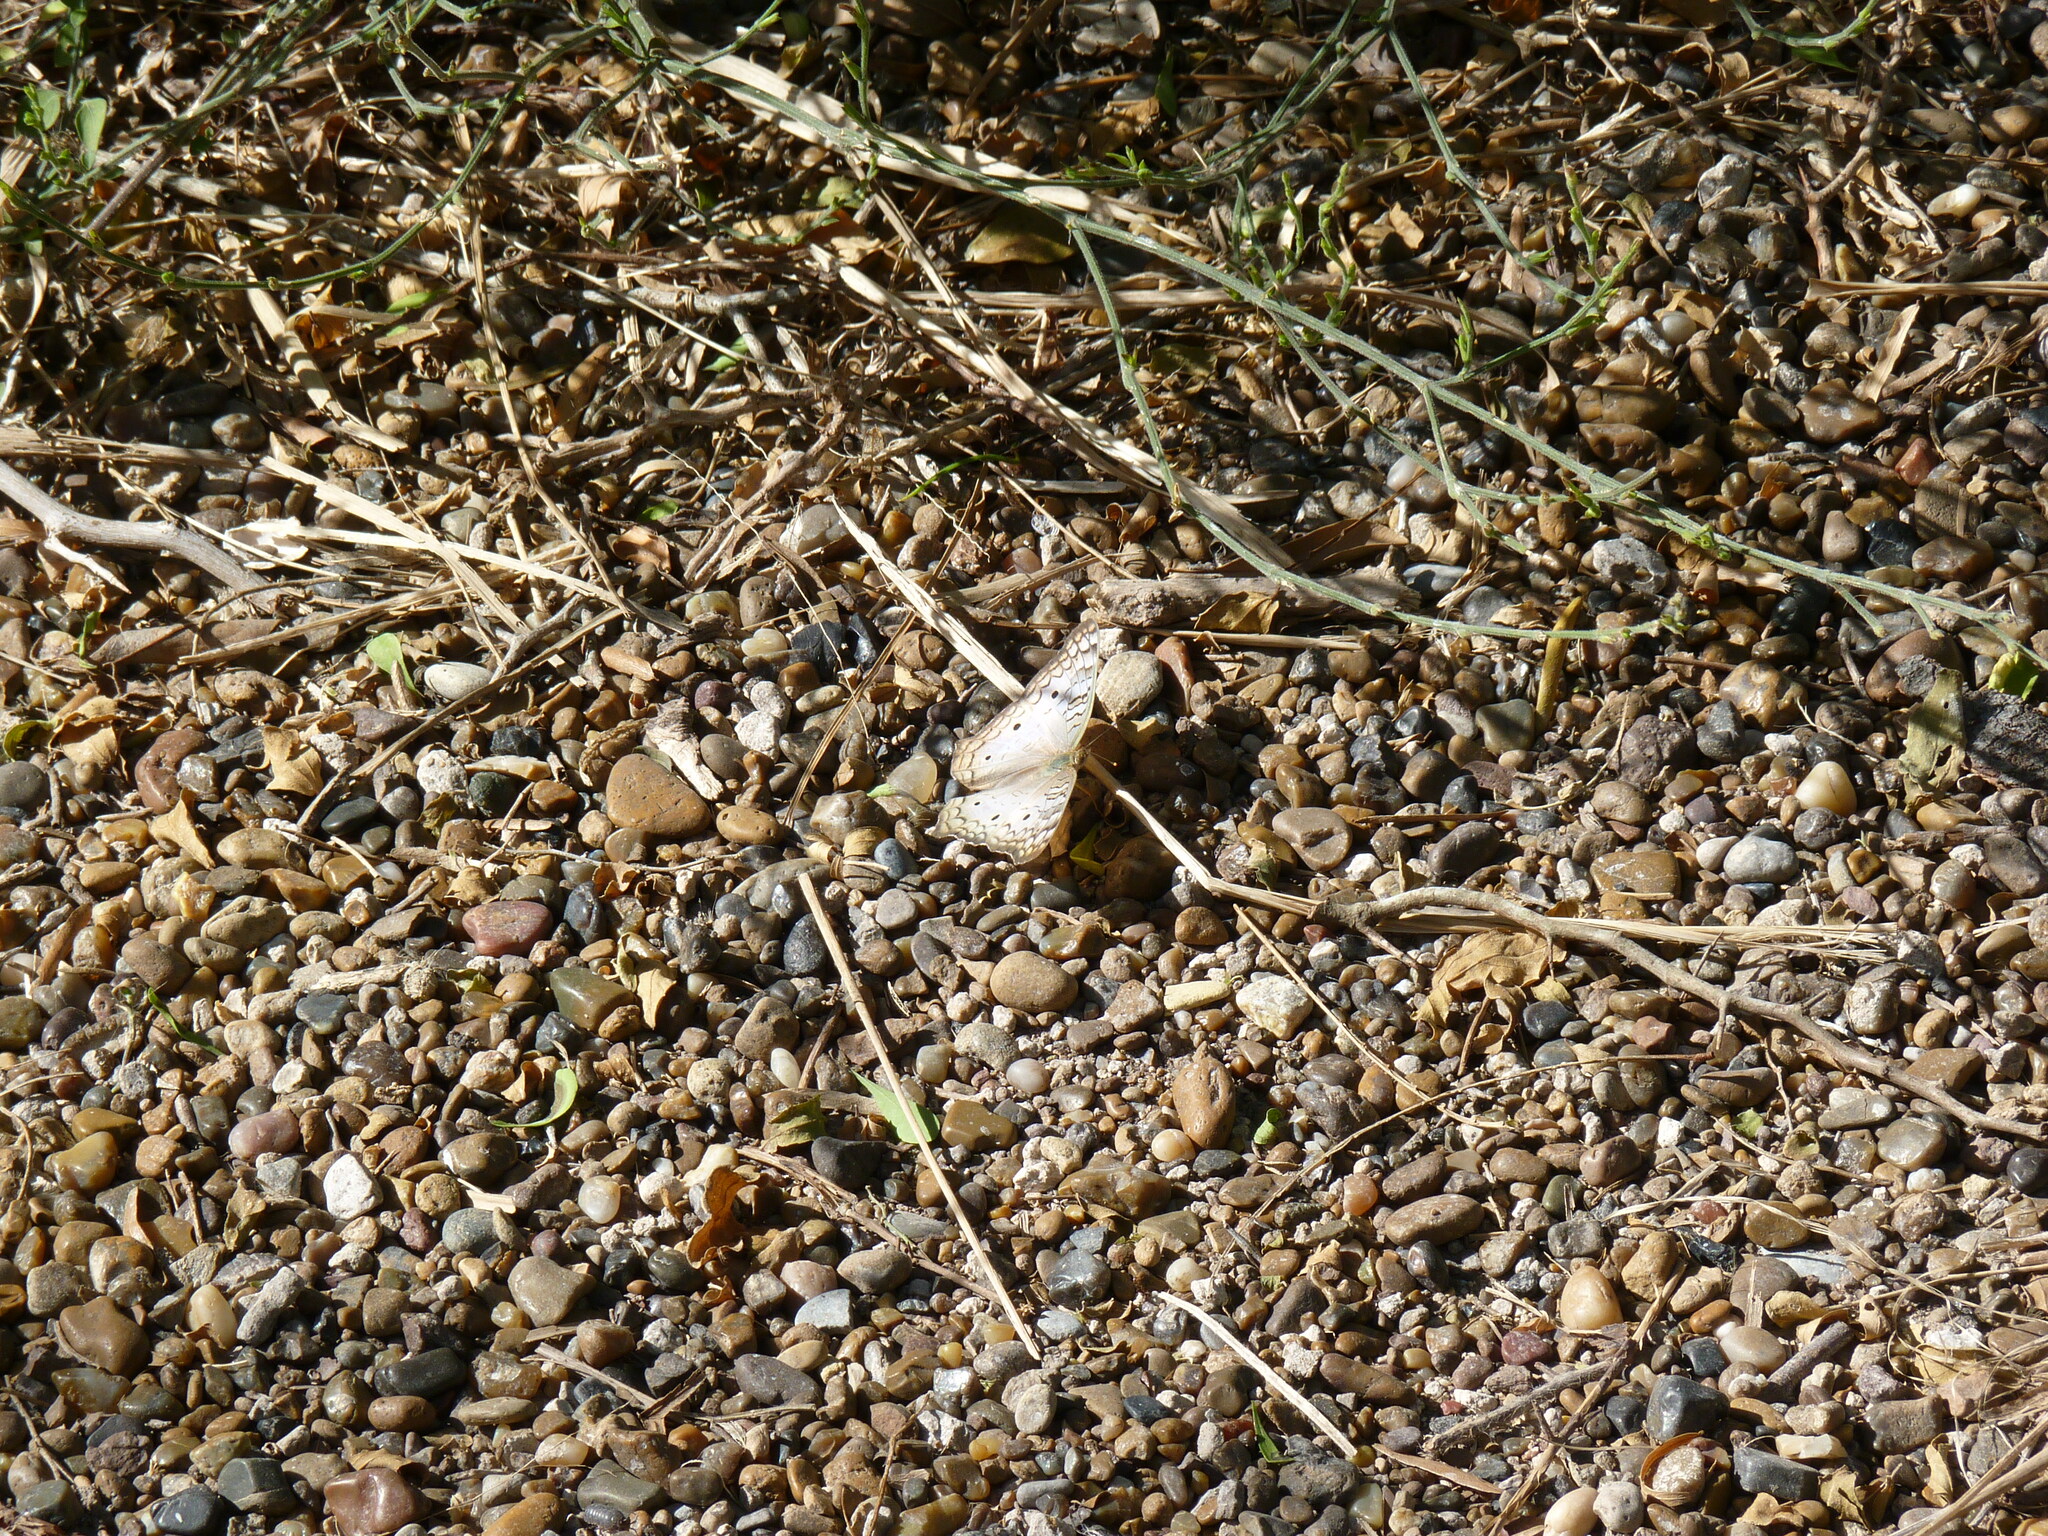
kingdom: Animalia
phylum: Arthropoda
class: Insecta
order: Lepidoptera
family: Nymphalidae
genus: Anartia
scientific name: Anartia jatrophae
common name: White peacock
